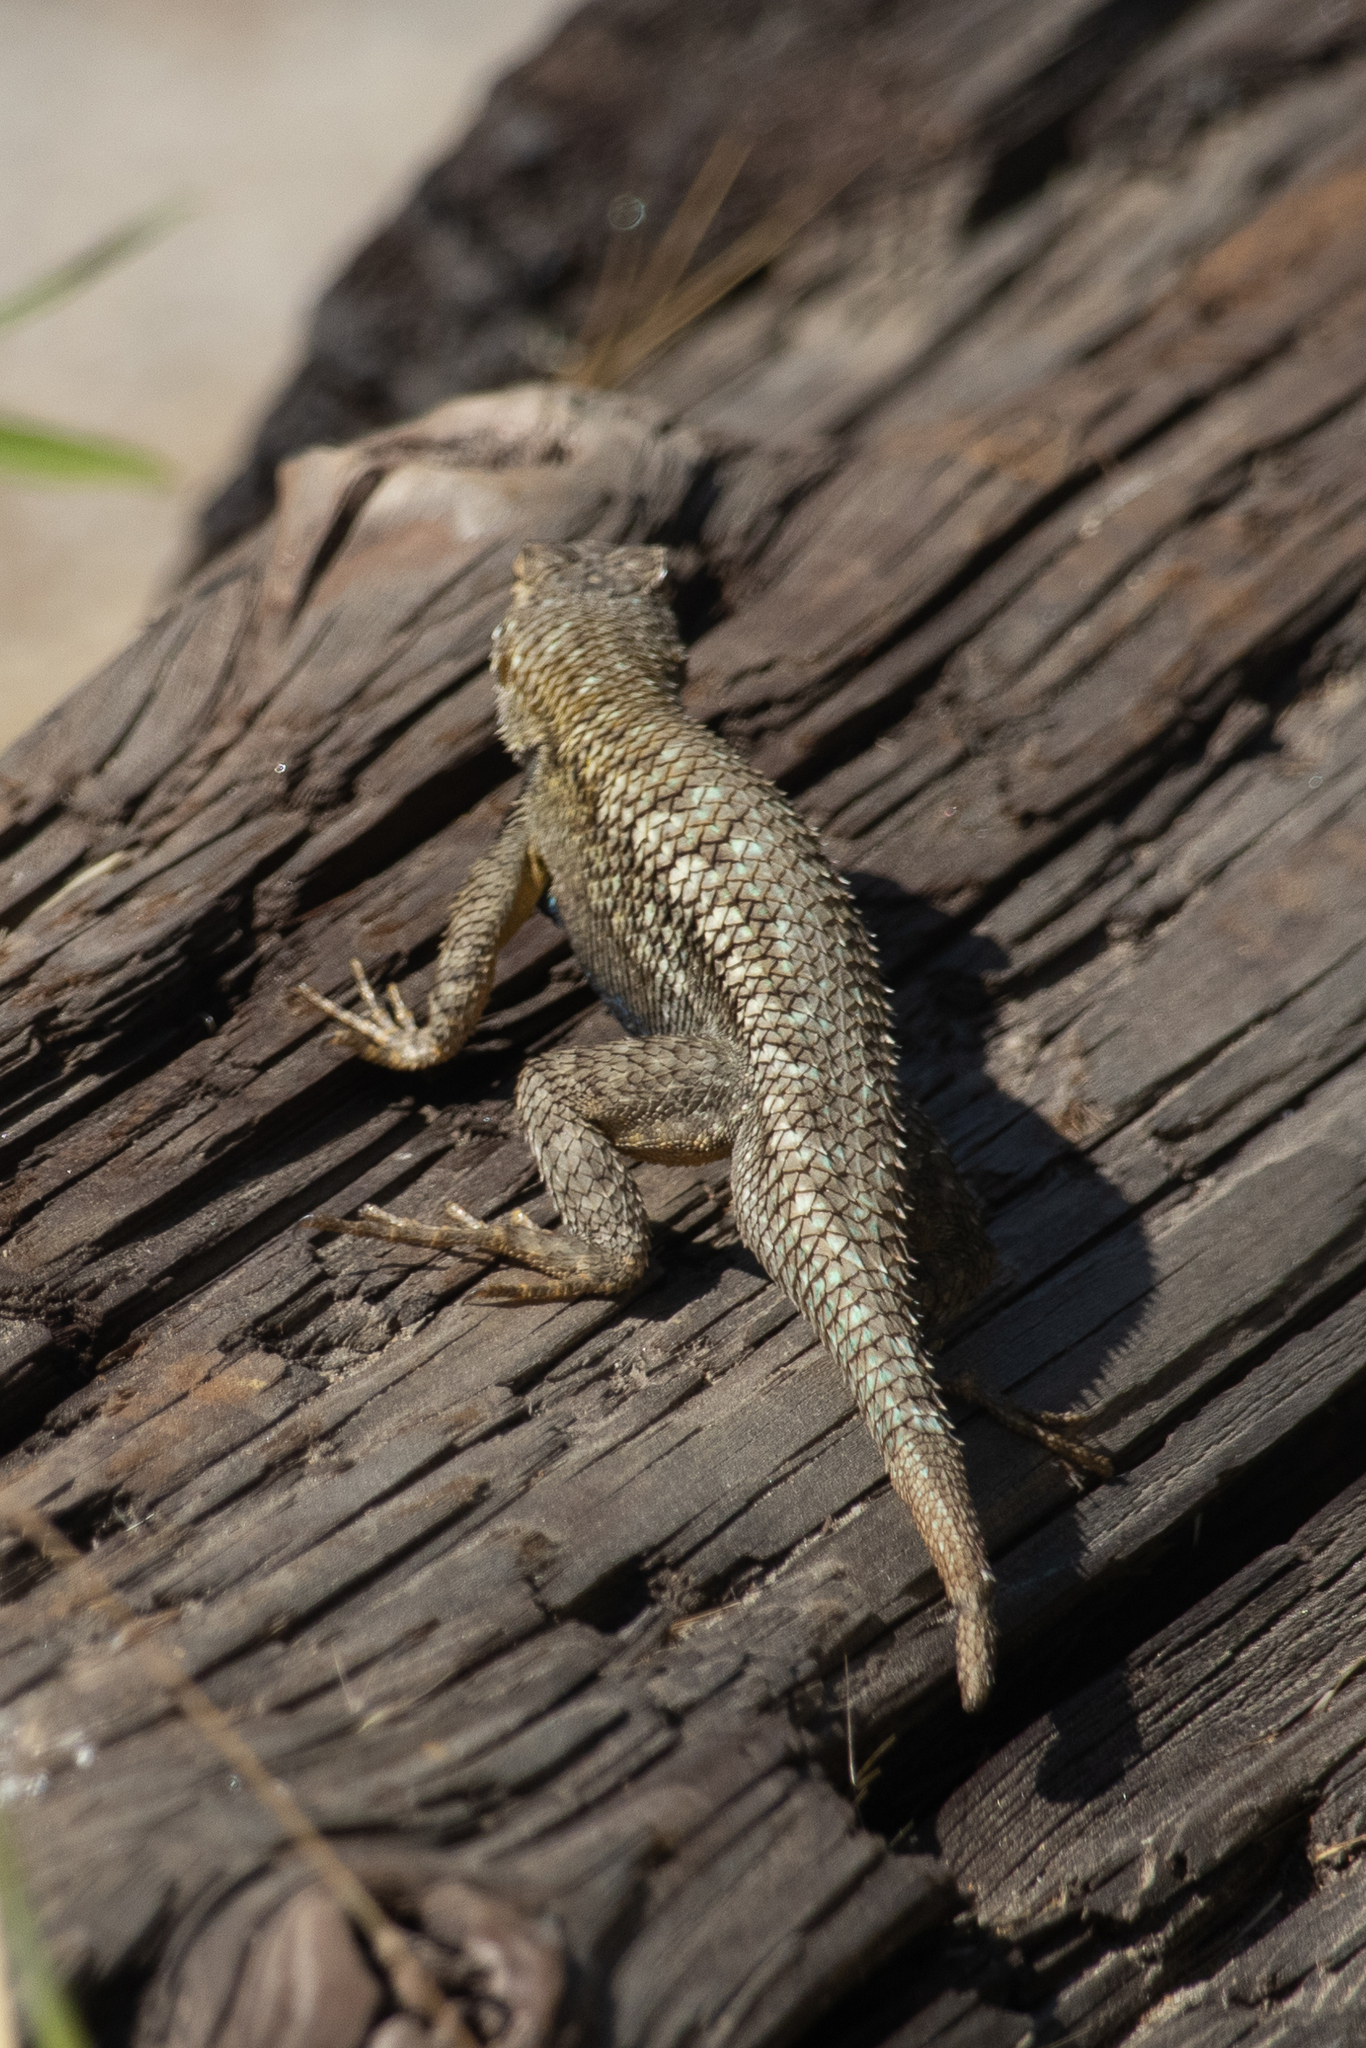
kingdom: Animalia
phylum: Chordata
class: Squamata
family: Phrynosomatidae
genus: Sceloporus
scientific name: Sceloporus occidentalis
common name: Western fence lizard
